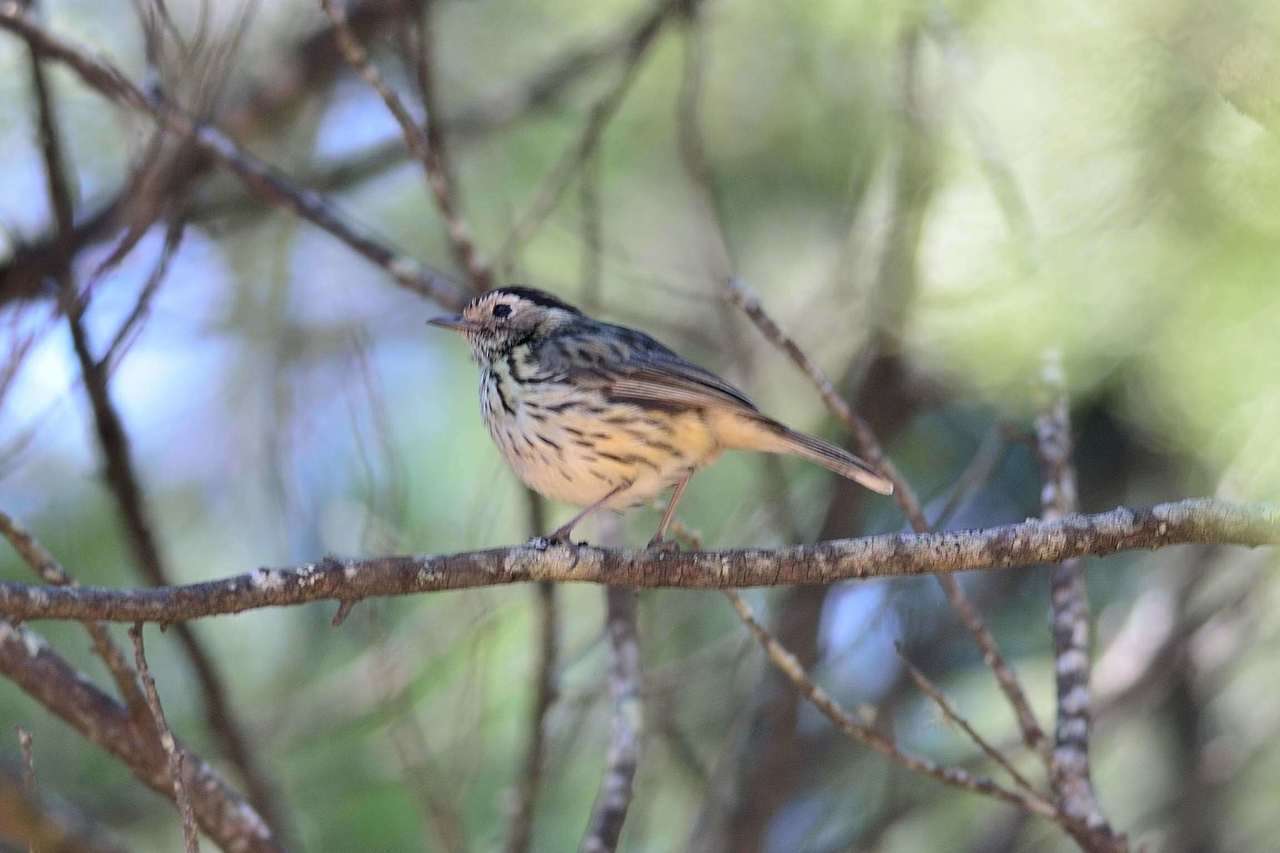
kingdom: Animalia
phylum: Chordata
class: Aves
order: Passeriformes
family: Acanthizidae
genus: Pyrrholaemus
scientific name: Pyrrholaemus sagittatus
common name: Speckled warbler
